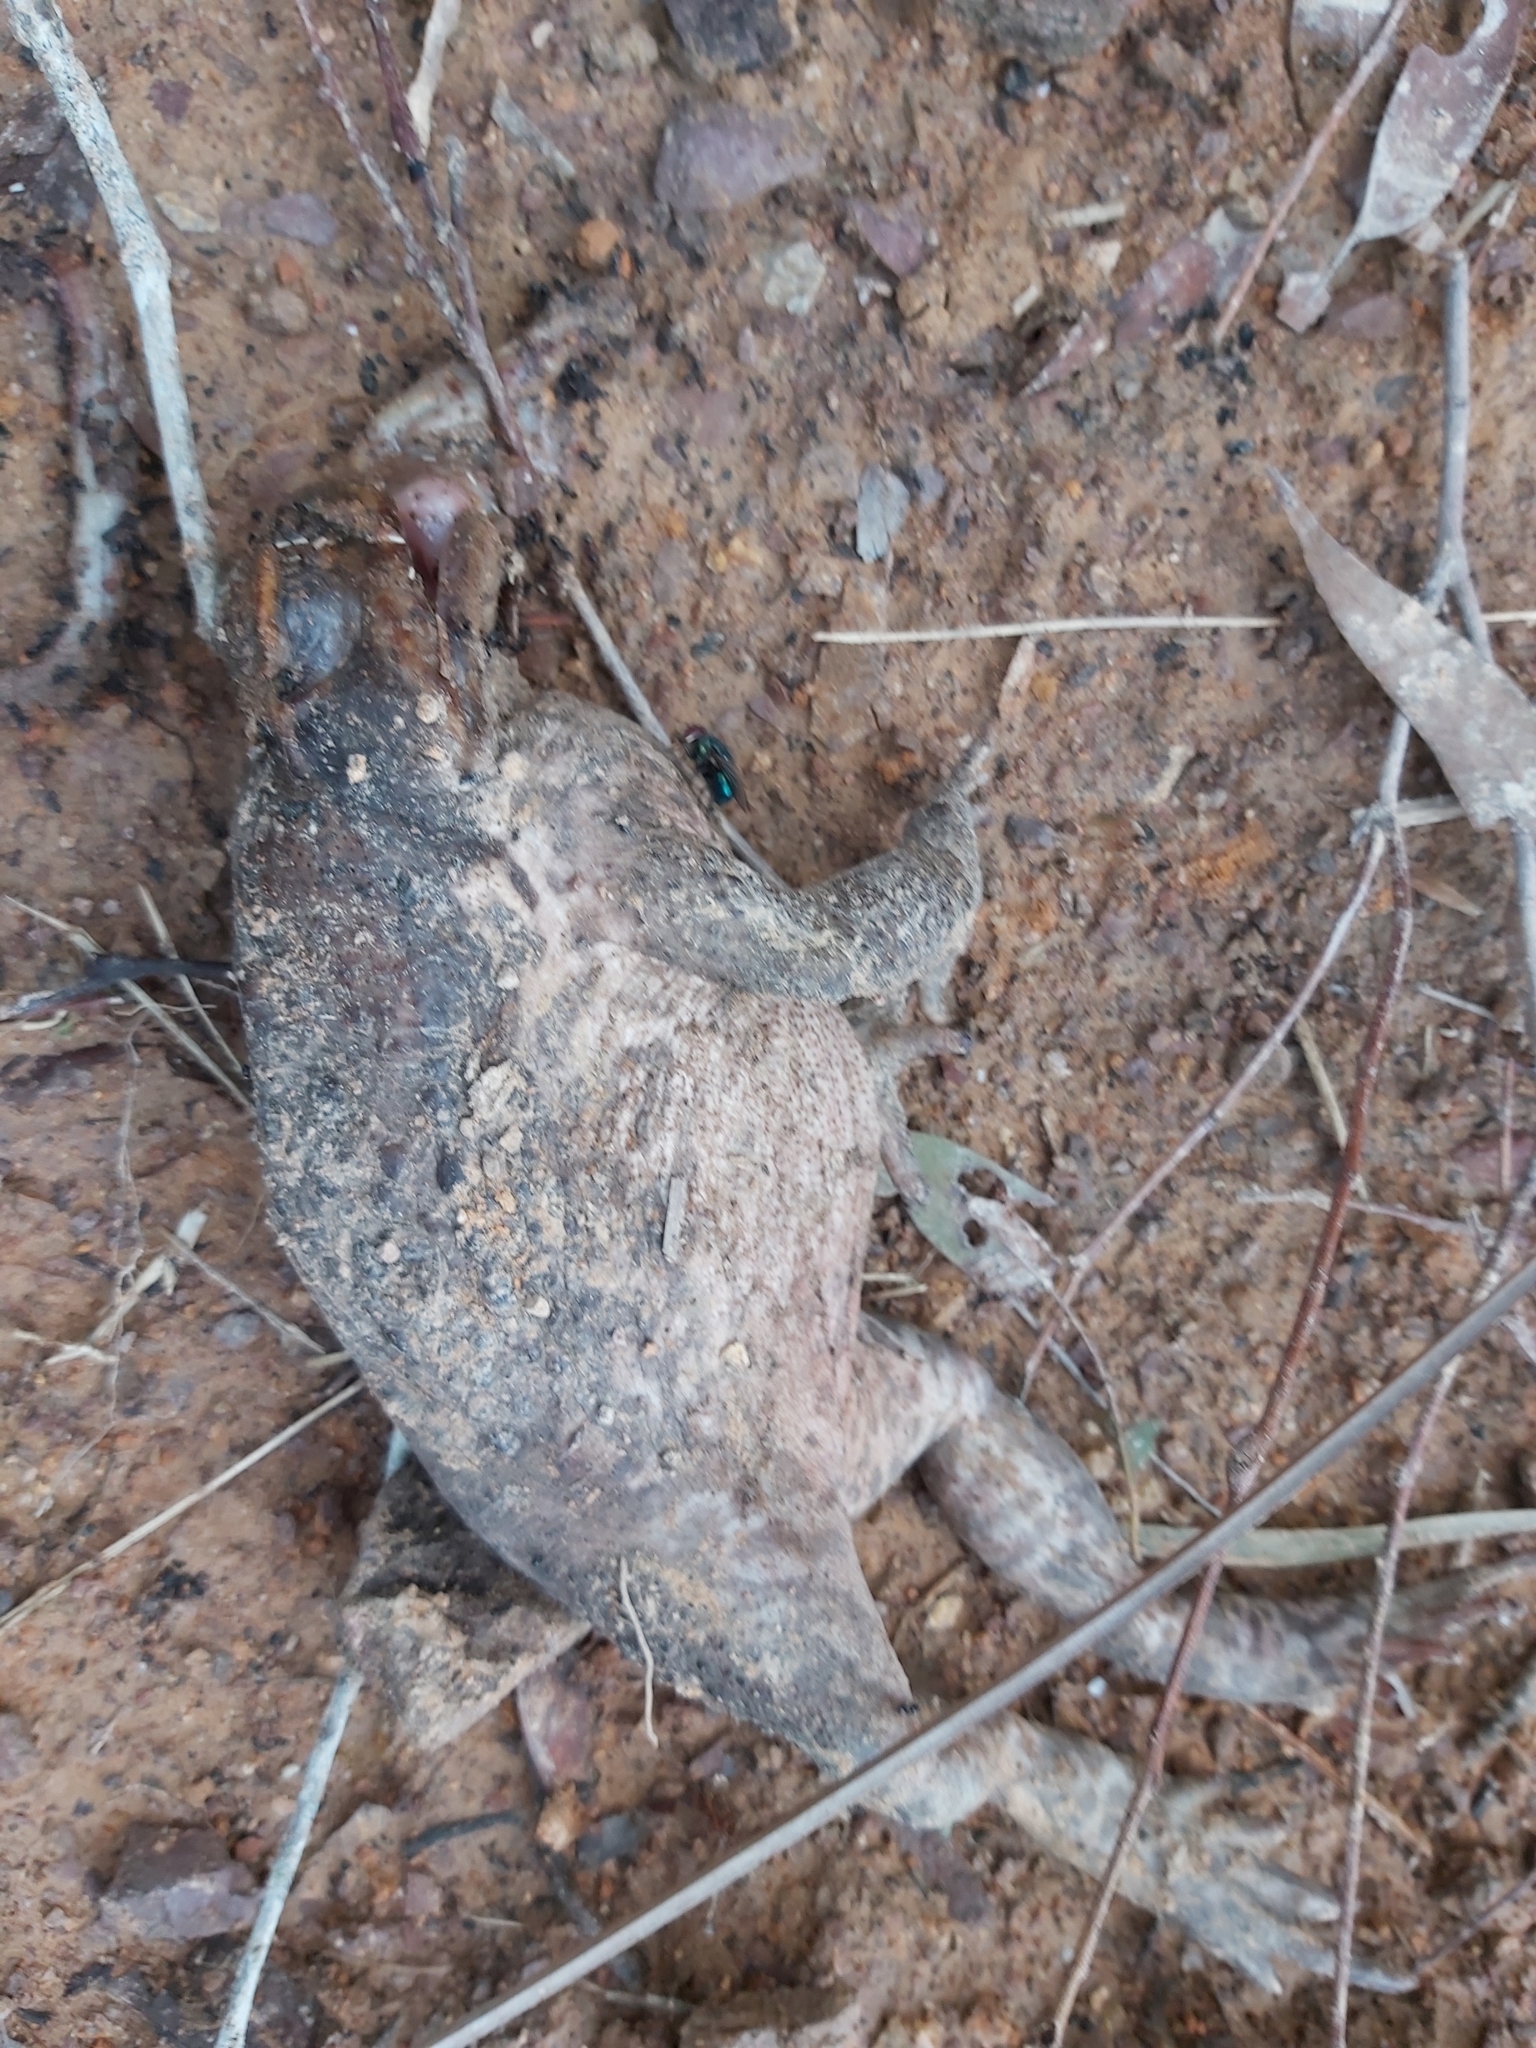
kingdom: Animalia
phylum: Chordata
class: Amphibia
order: Anura
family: Bufonidae
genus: Rhinella
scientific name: Rhinella marina
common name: Cane toad
